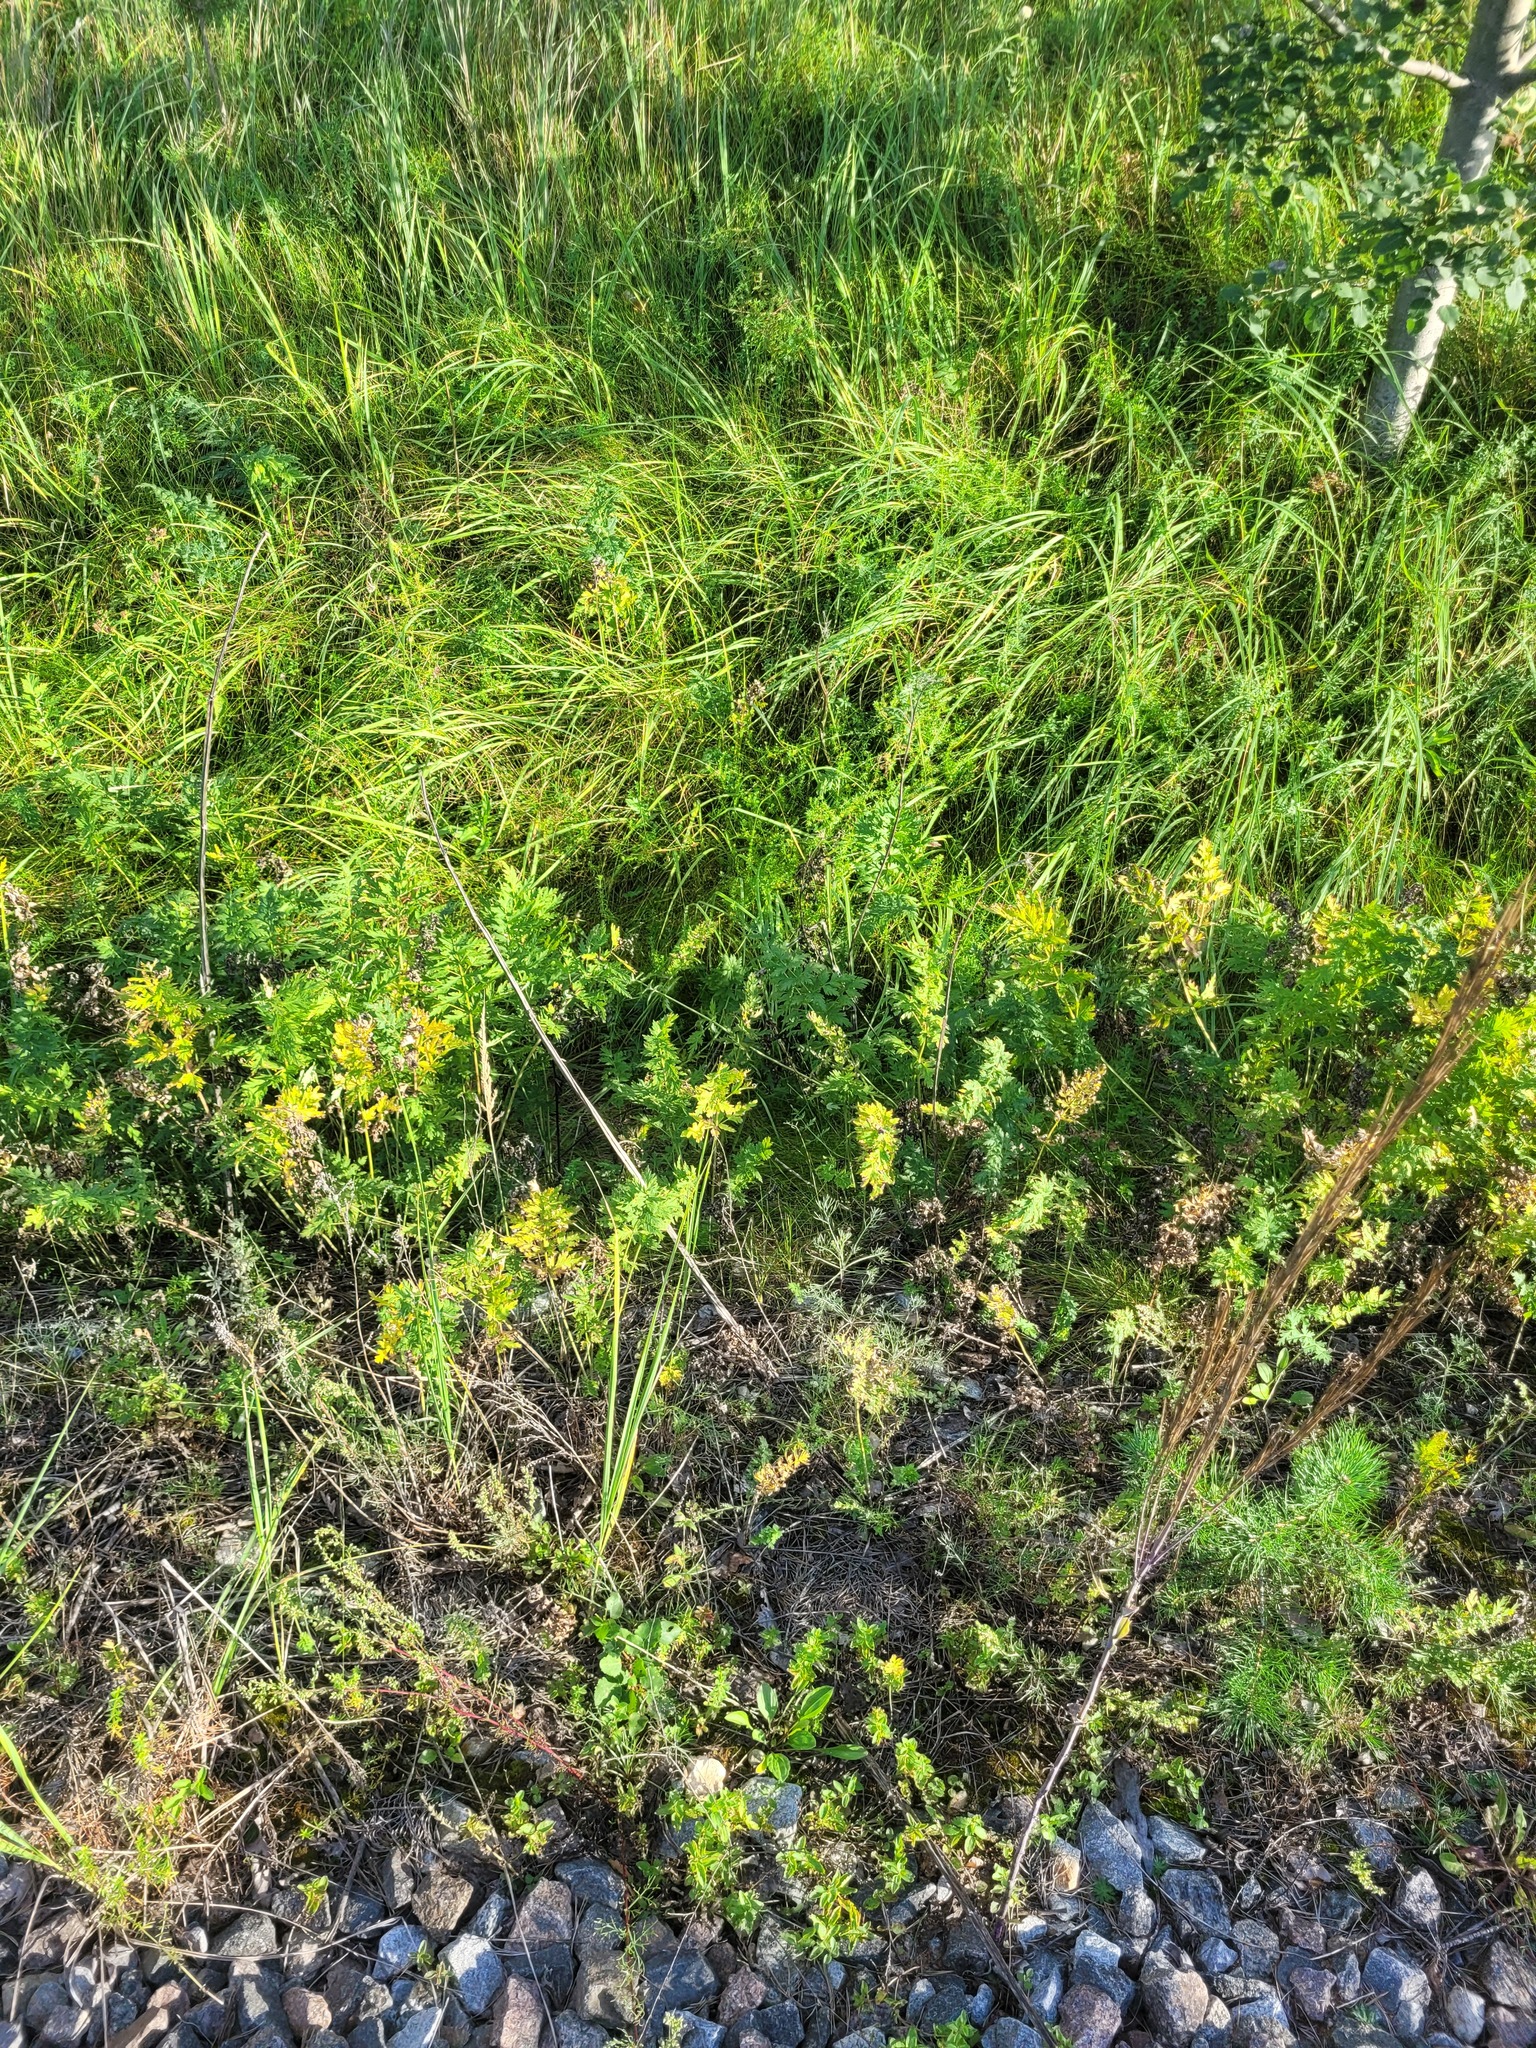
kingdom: Plantae
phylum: Tracheophyta
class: Magnoliopsida
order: Apiales
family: Apiaceae
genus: Seseli
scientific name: Seseli libanotis
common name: Mooncarrot
